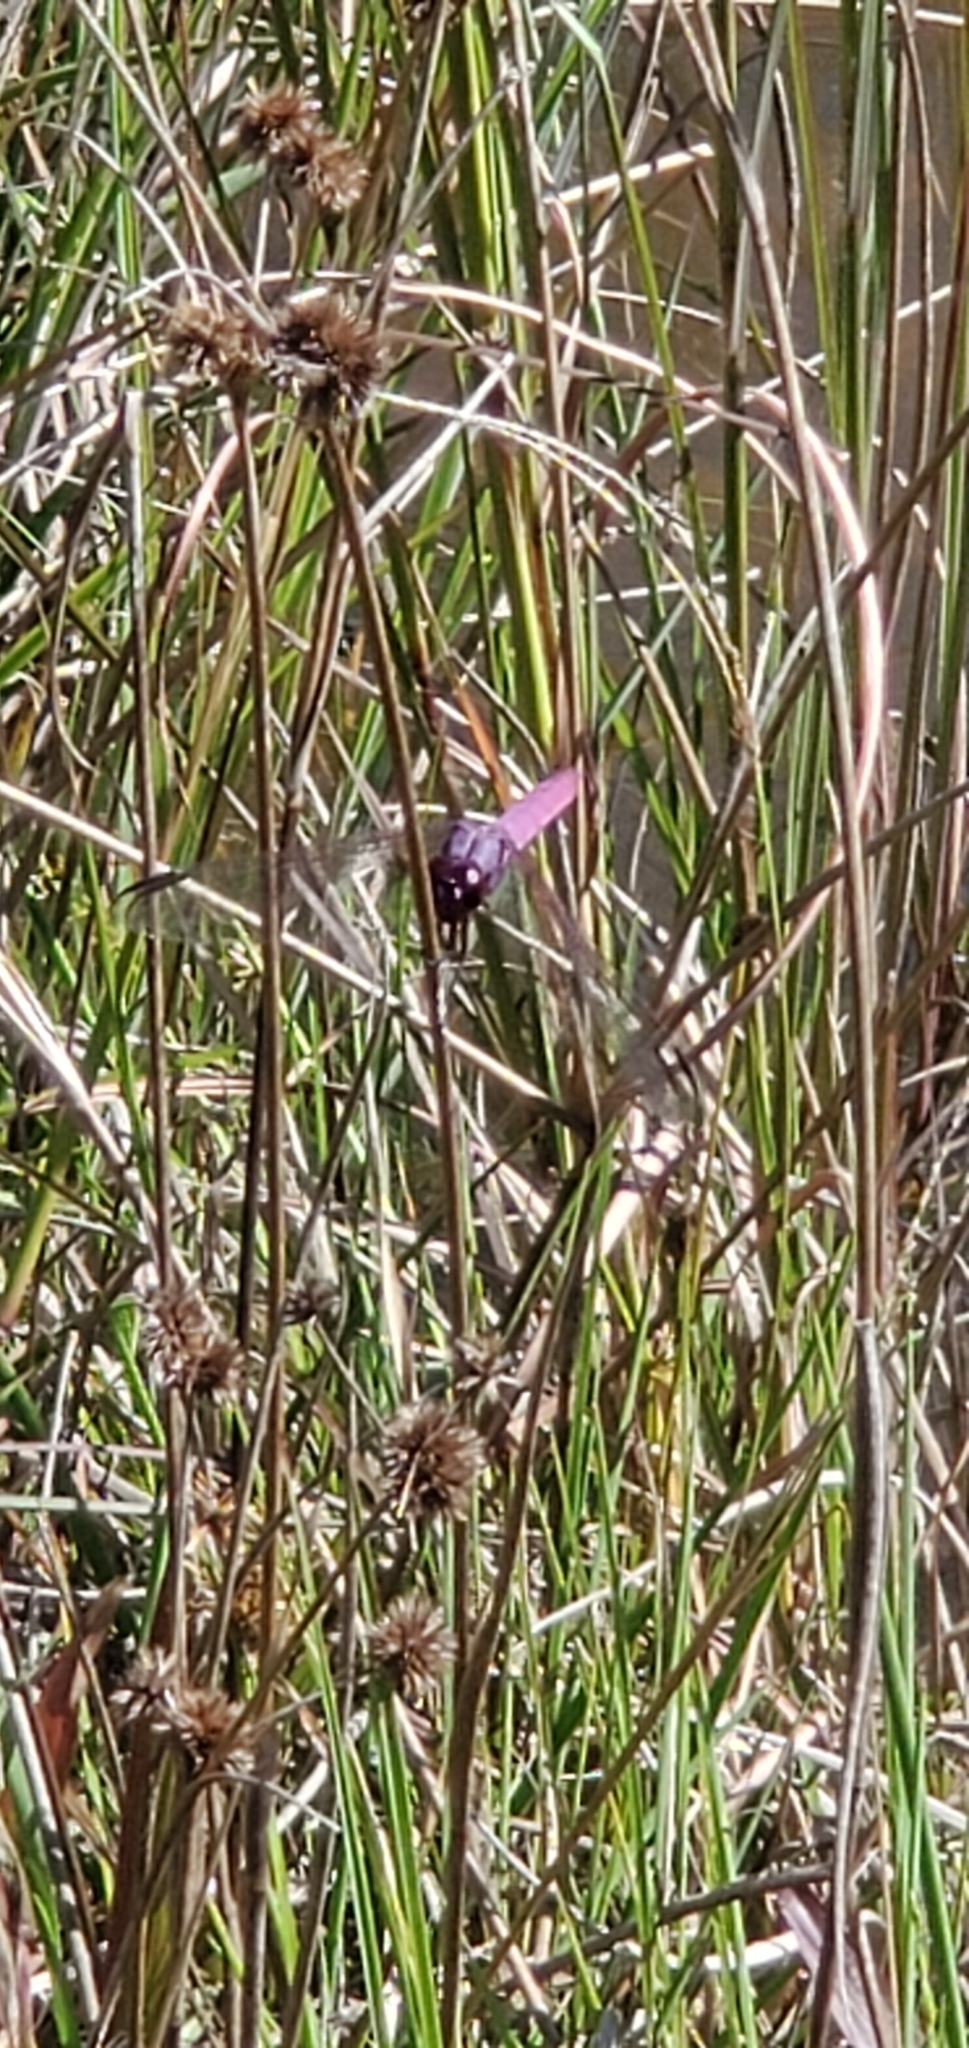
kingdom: Animalia
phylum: Arthropoda
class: Insecta
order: Odonata
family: Libellulidae
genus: Orthemis
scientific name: Orthemis ferruginea
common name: Roseate skimmer
